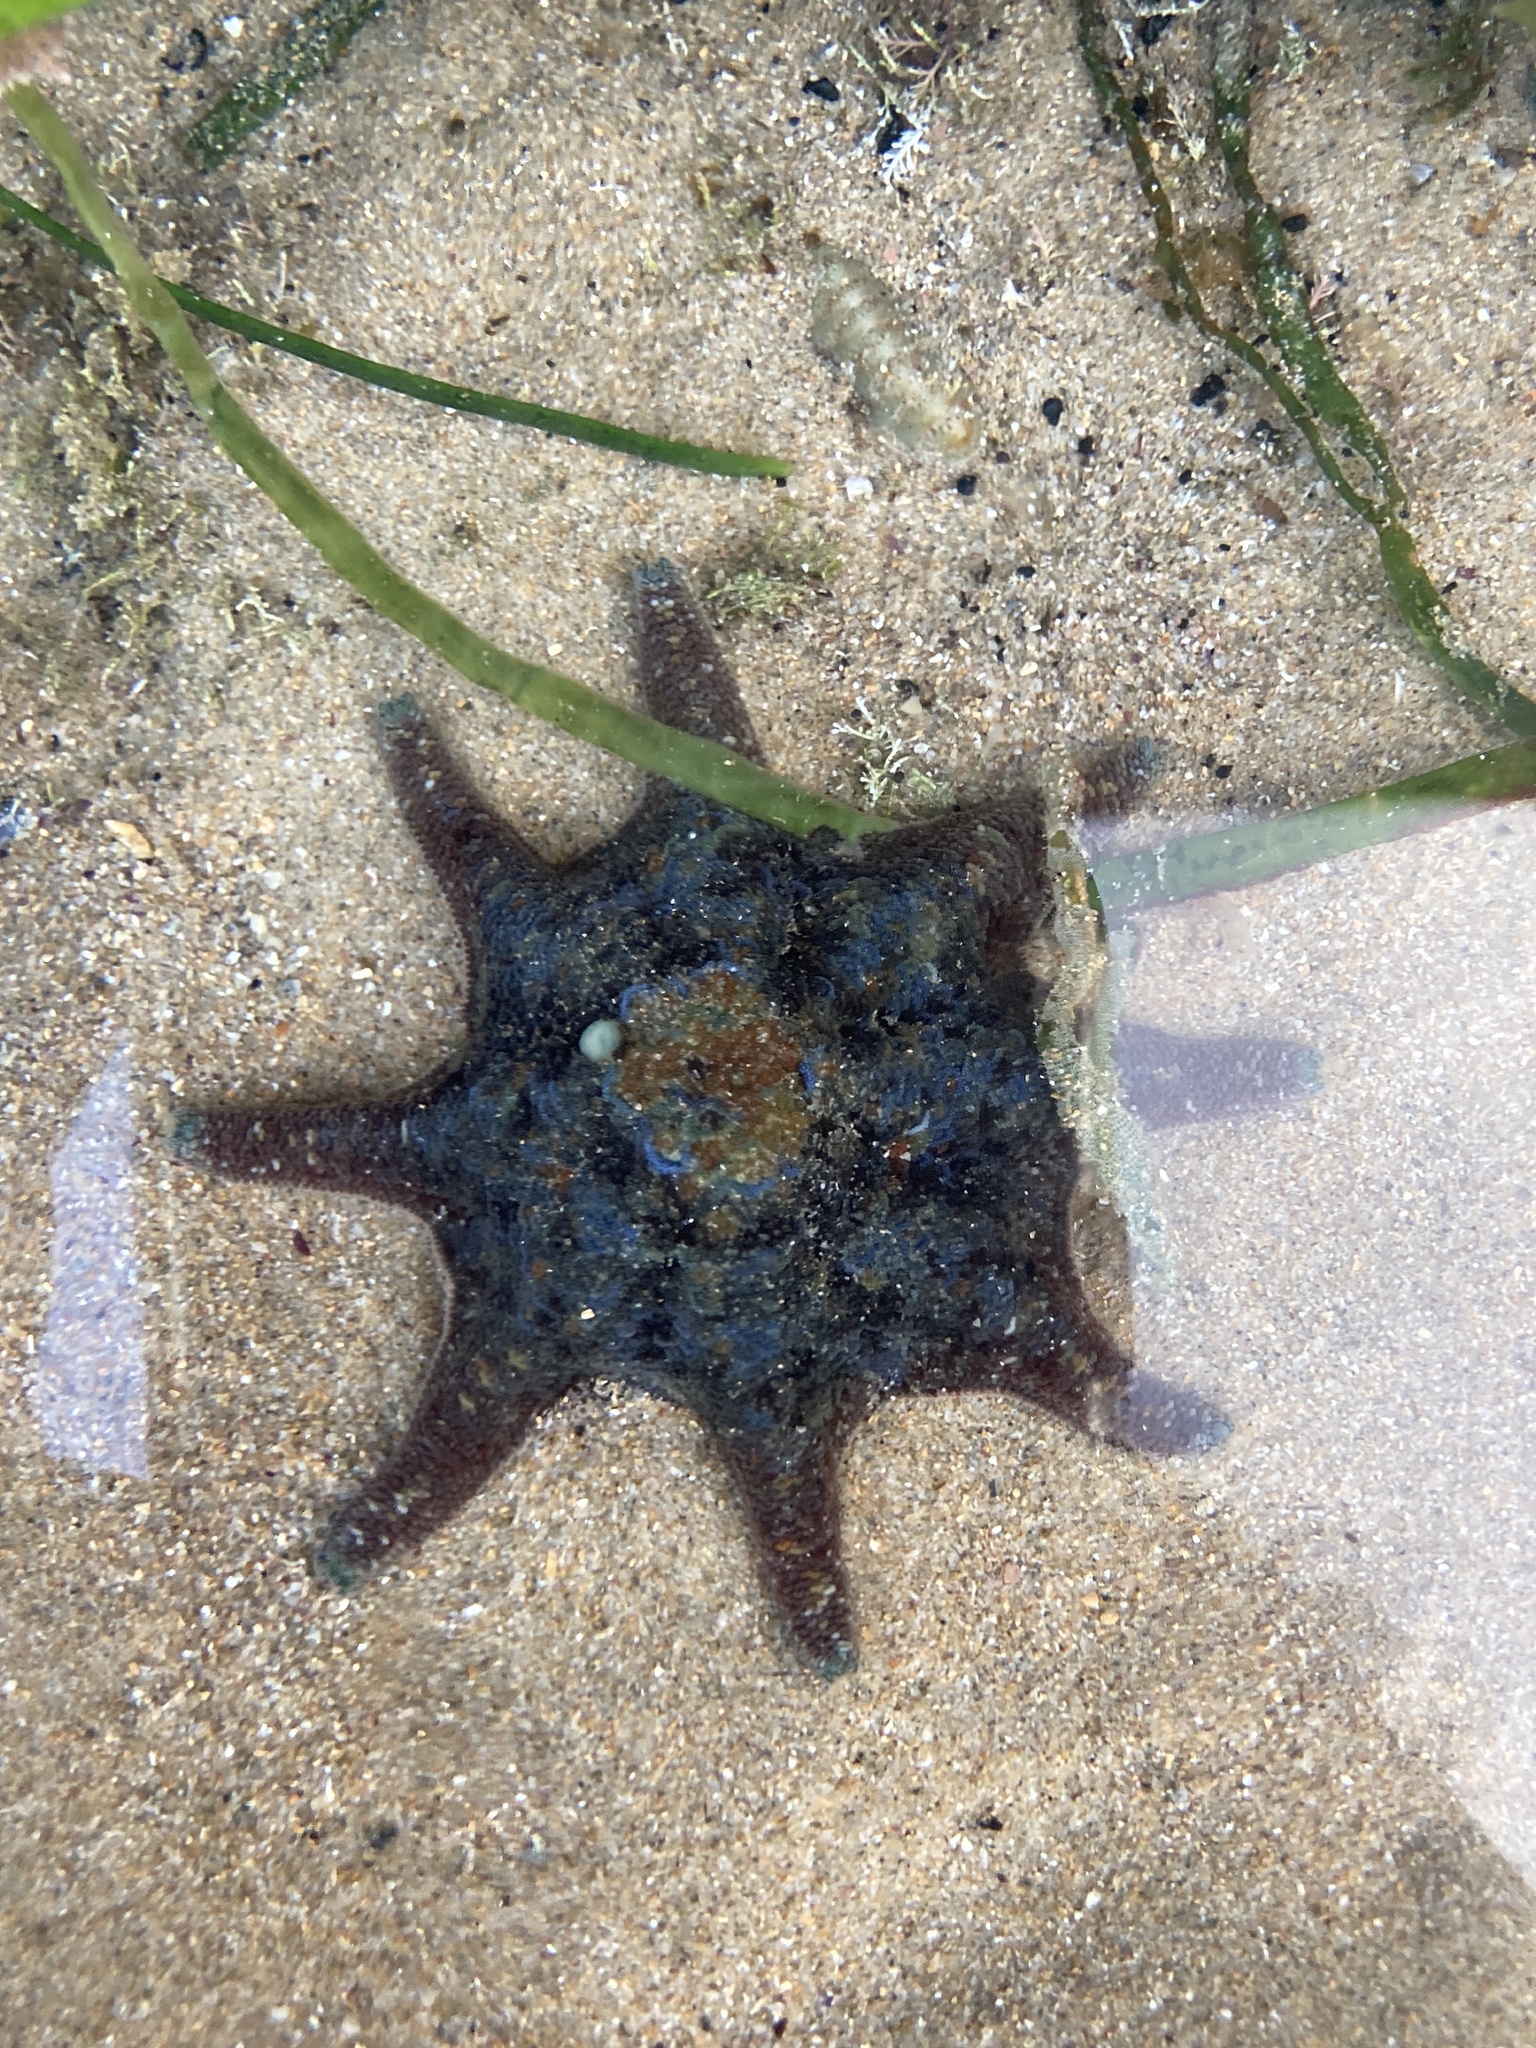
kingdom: Animalia
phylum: Echinodermata
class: Asteroidea
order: Valvatida
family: Asterinidae
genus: Meridiastra
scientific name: Meridiastra calcar
